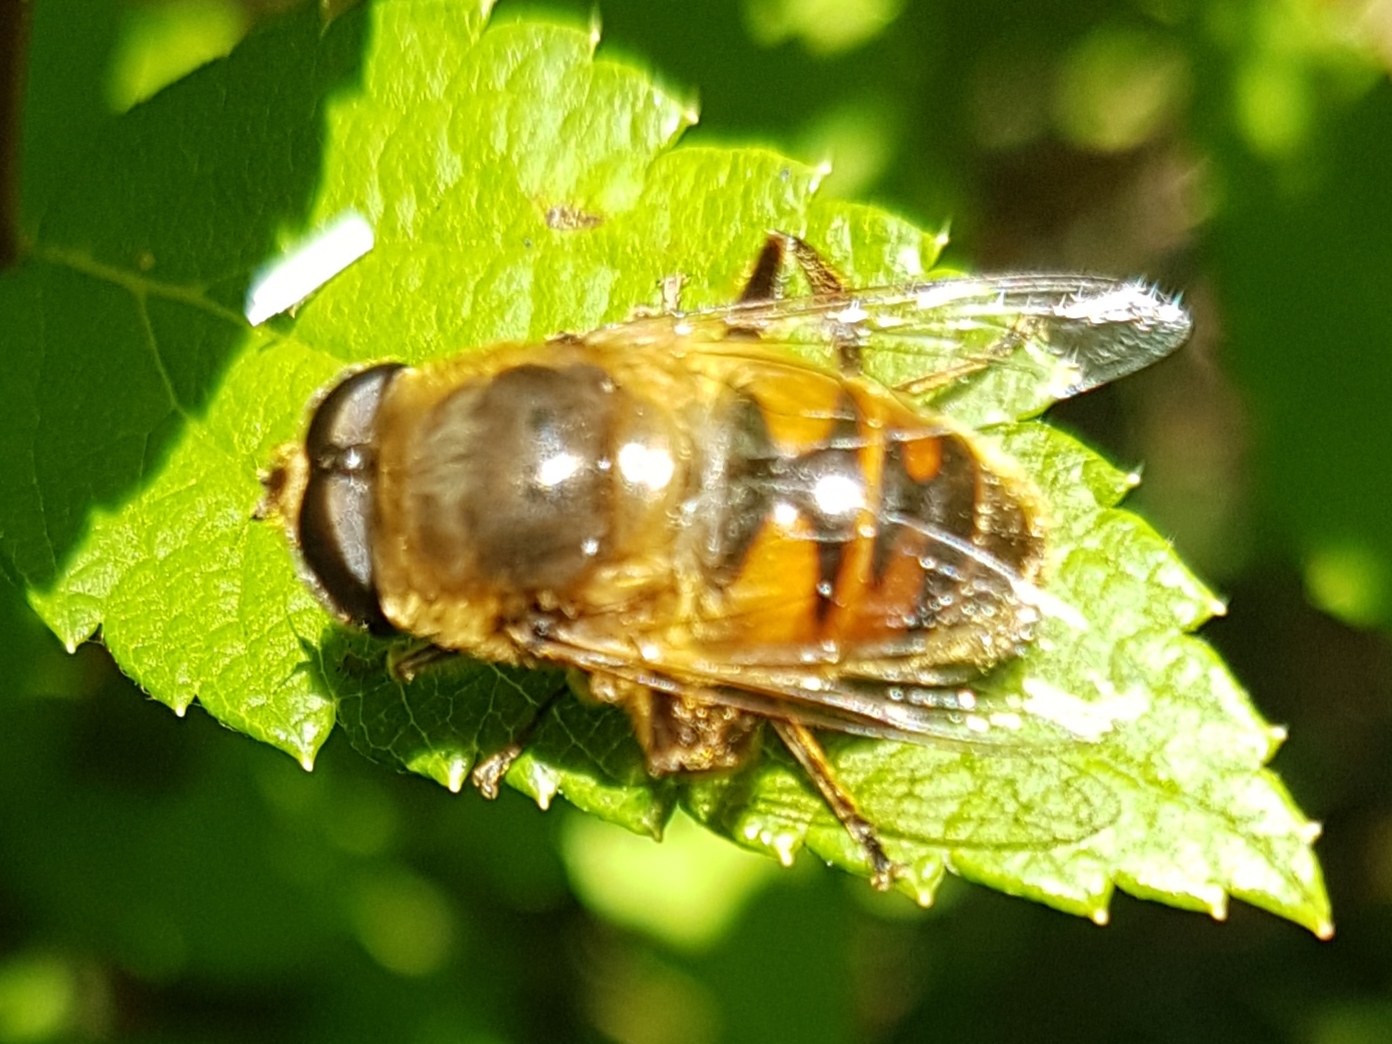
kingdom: Animalia
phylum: Arthropoda
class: Insecta
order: Diptera
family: Syrphidae
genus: Eristalis
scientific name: Eristalis tenax
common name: Drone fly
